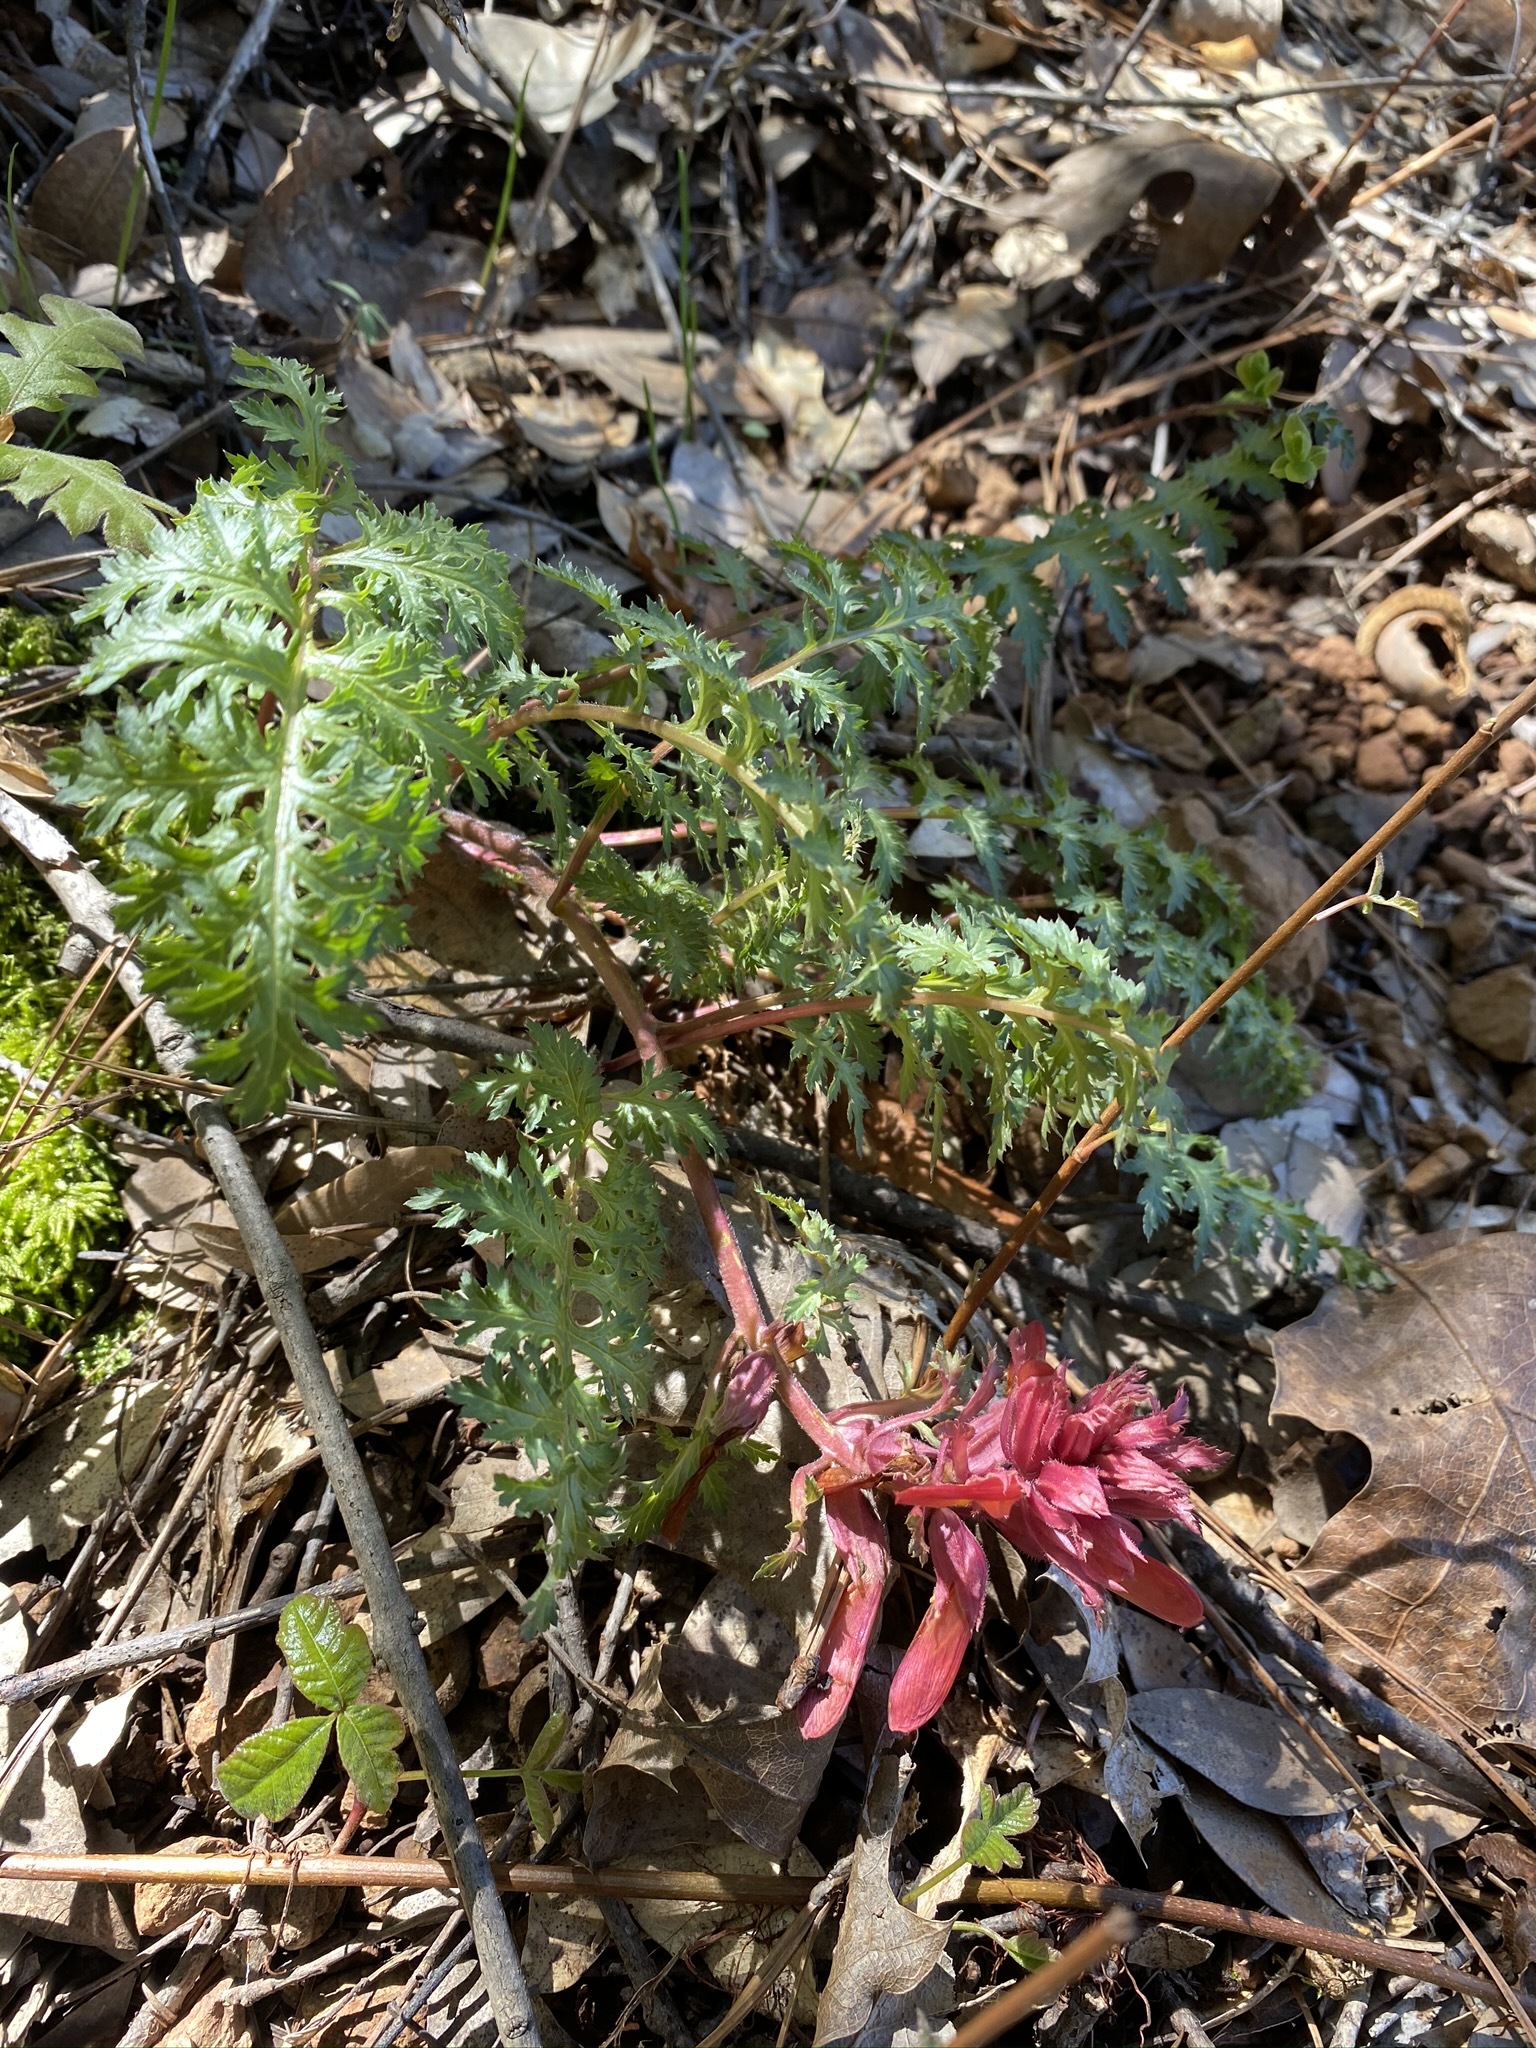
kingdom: Plantae
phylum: Tracheophyta
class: Magnoliopsida
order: Lamiales
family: Orobanchaceae
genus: Pedicularis
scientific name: Pedicularis densiflora
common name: Indian warrior
